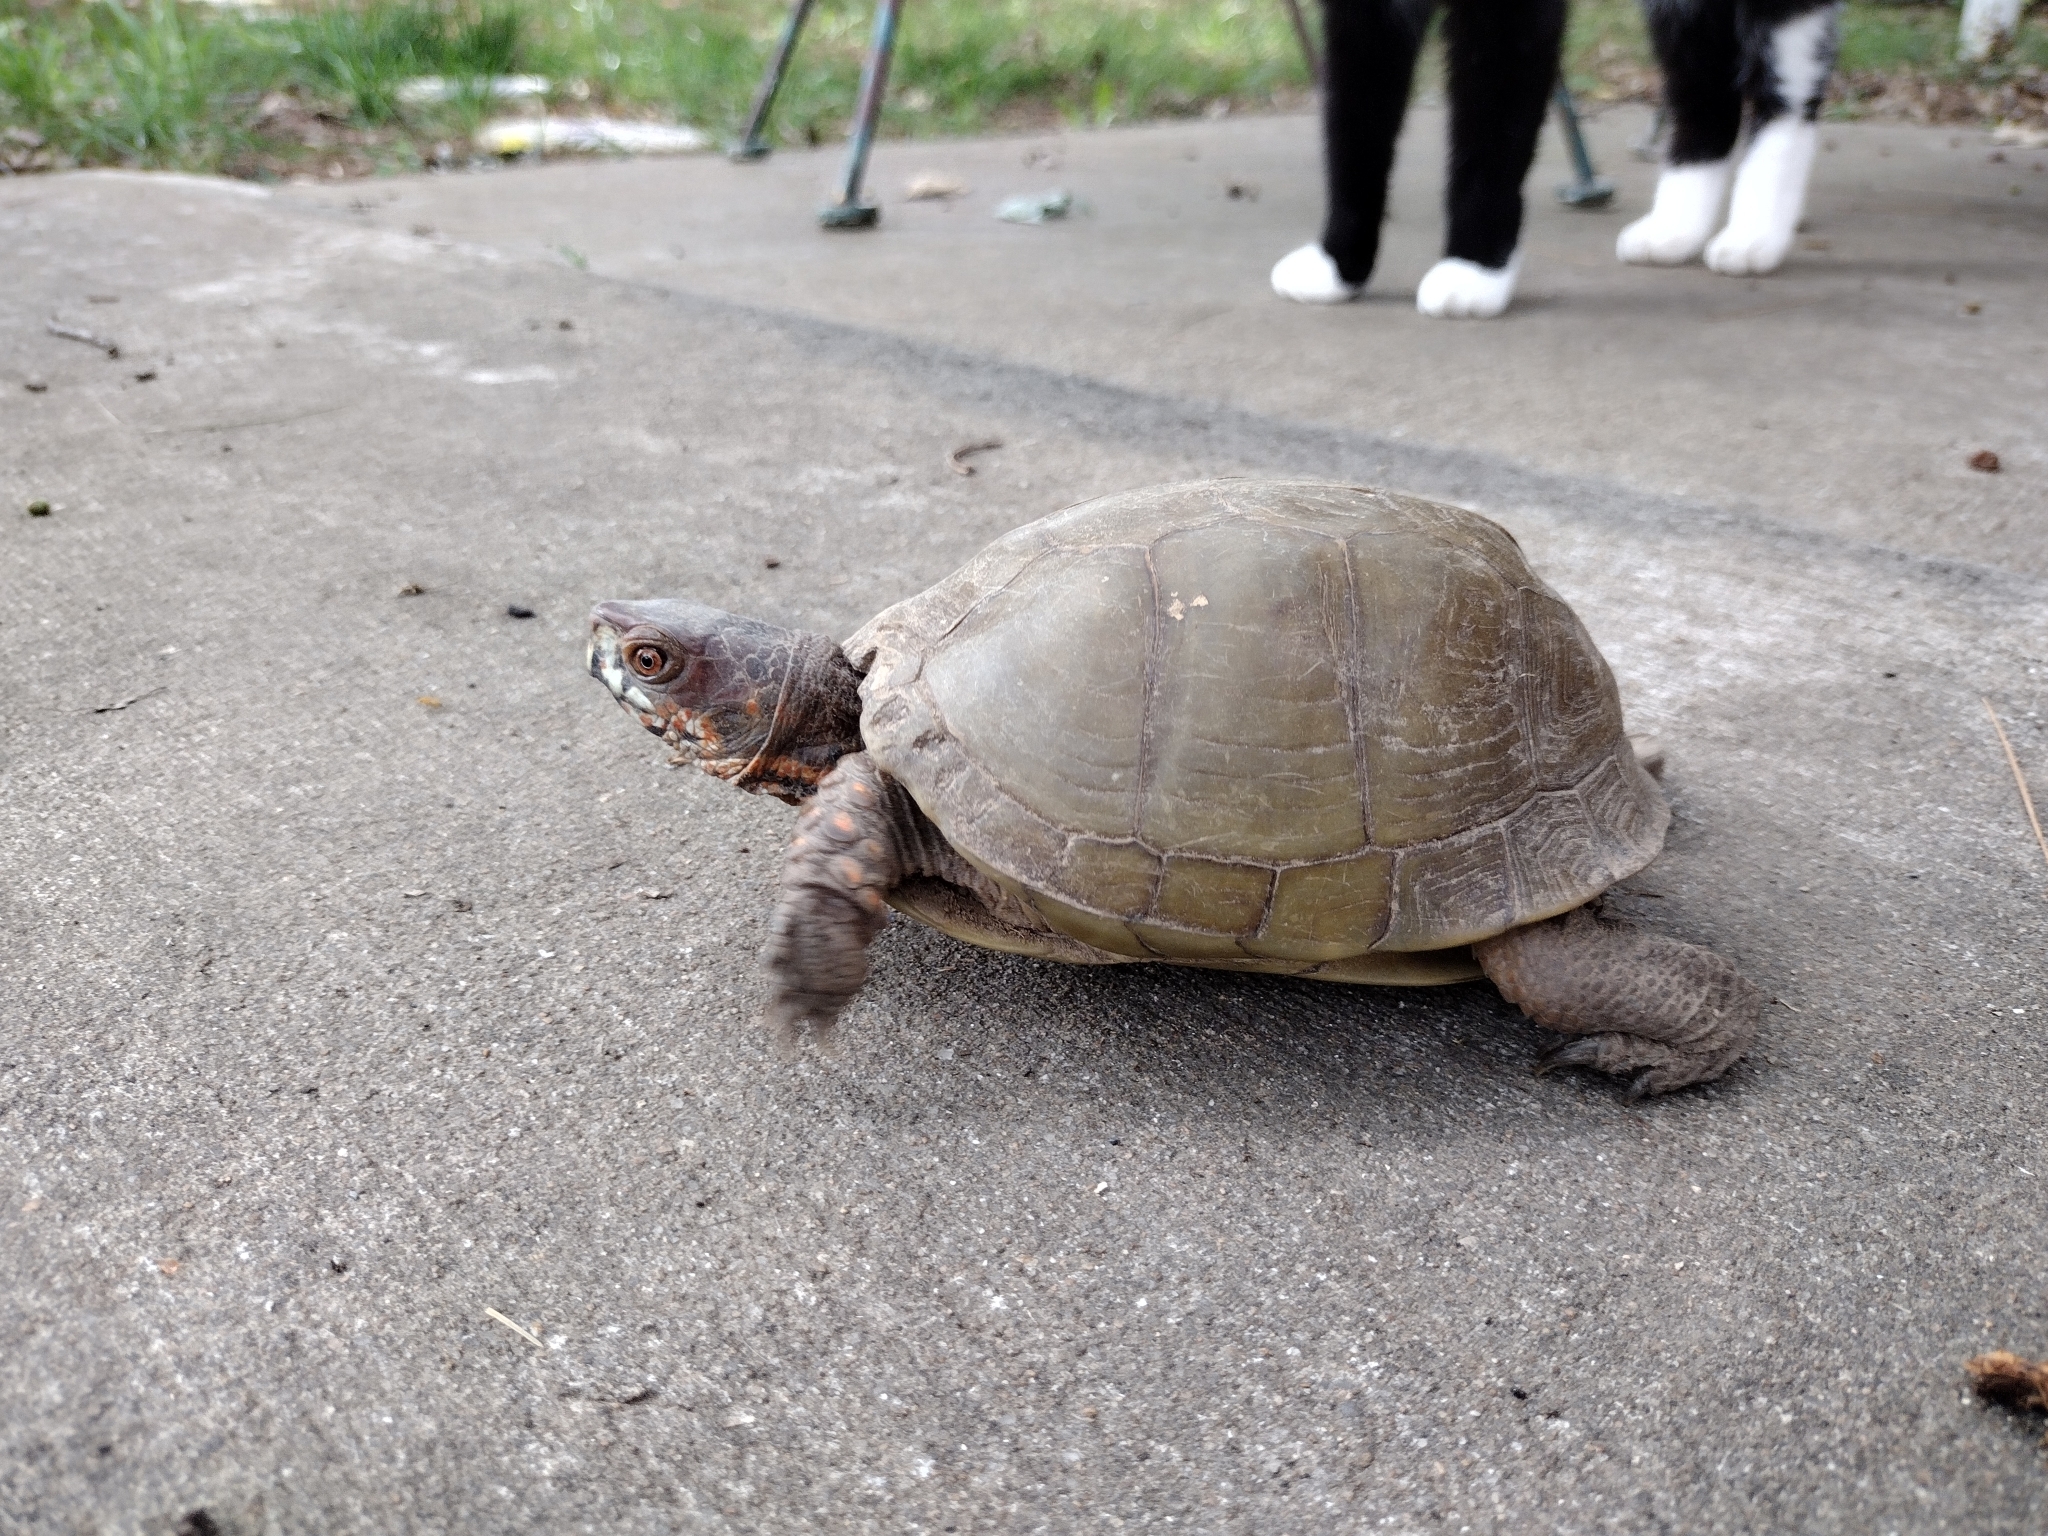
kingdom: Animalia
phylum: Chordata
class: Testudines
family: Emydidae
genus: Terrapene
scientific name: Terrapene carolina
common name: Common box turtle
